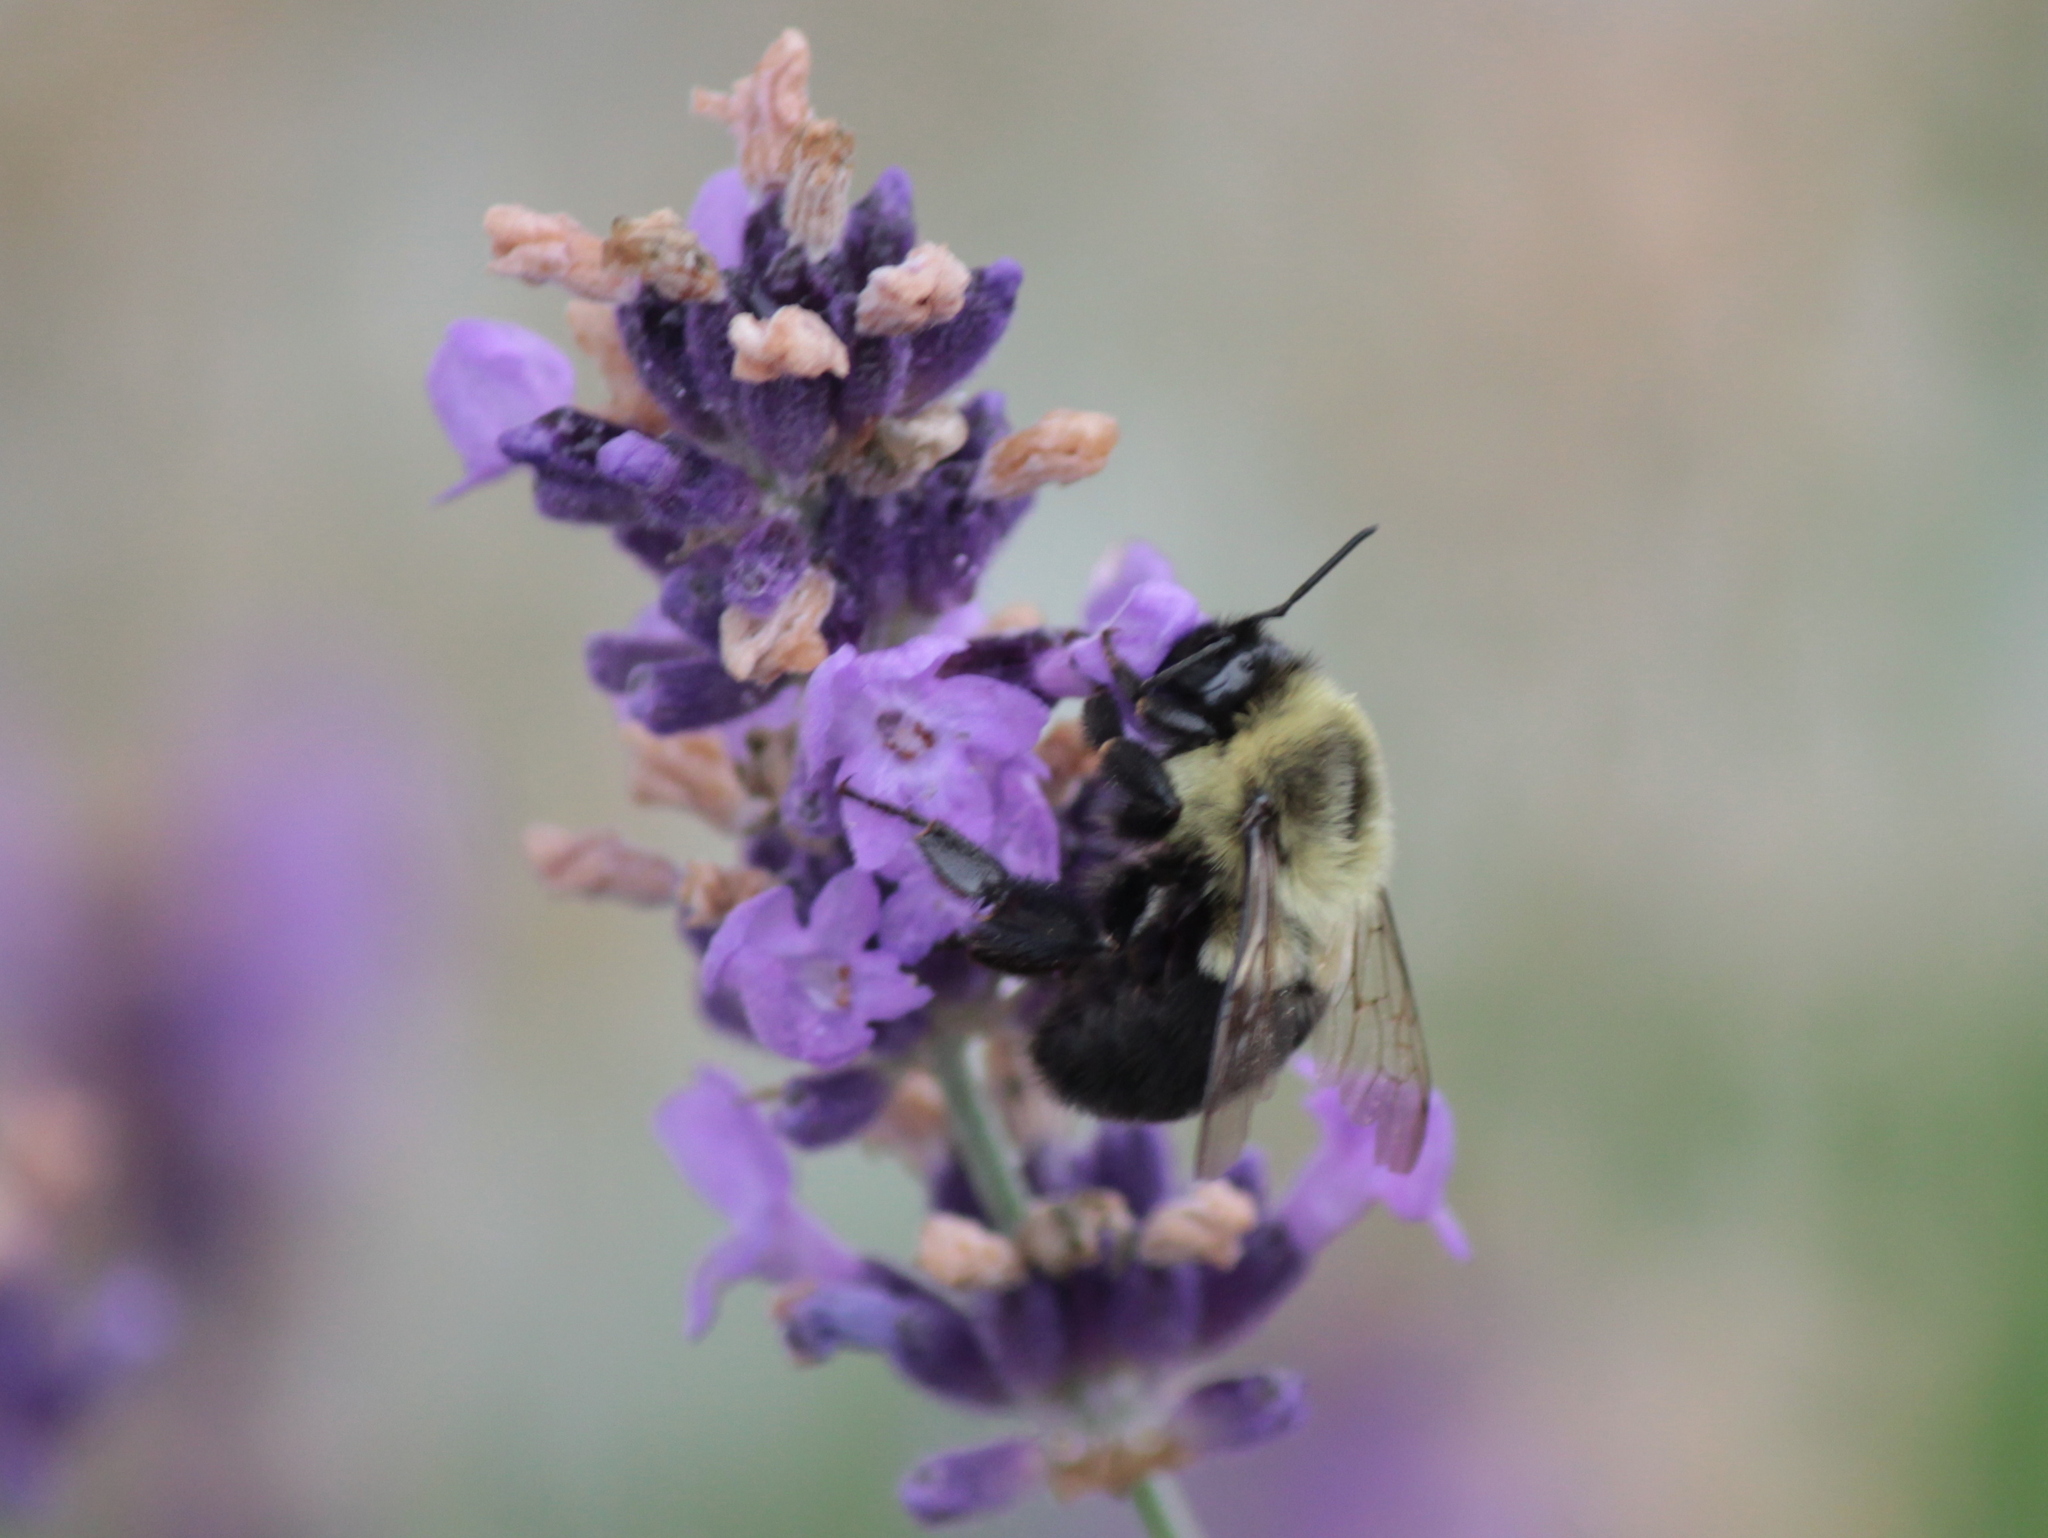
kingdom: Animalia
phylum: Arthropoda
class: Insecta
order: Hymenoptera
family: Apidae
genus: Bombus
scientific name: Bombus impatiens
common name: Common eastern bumble bee
